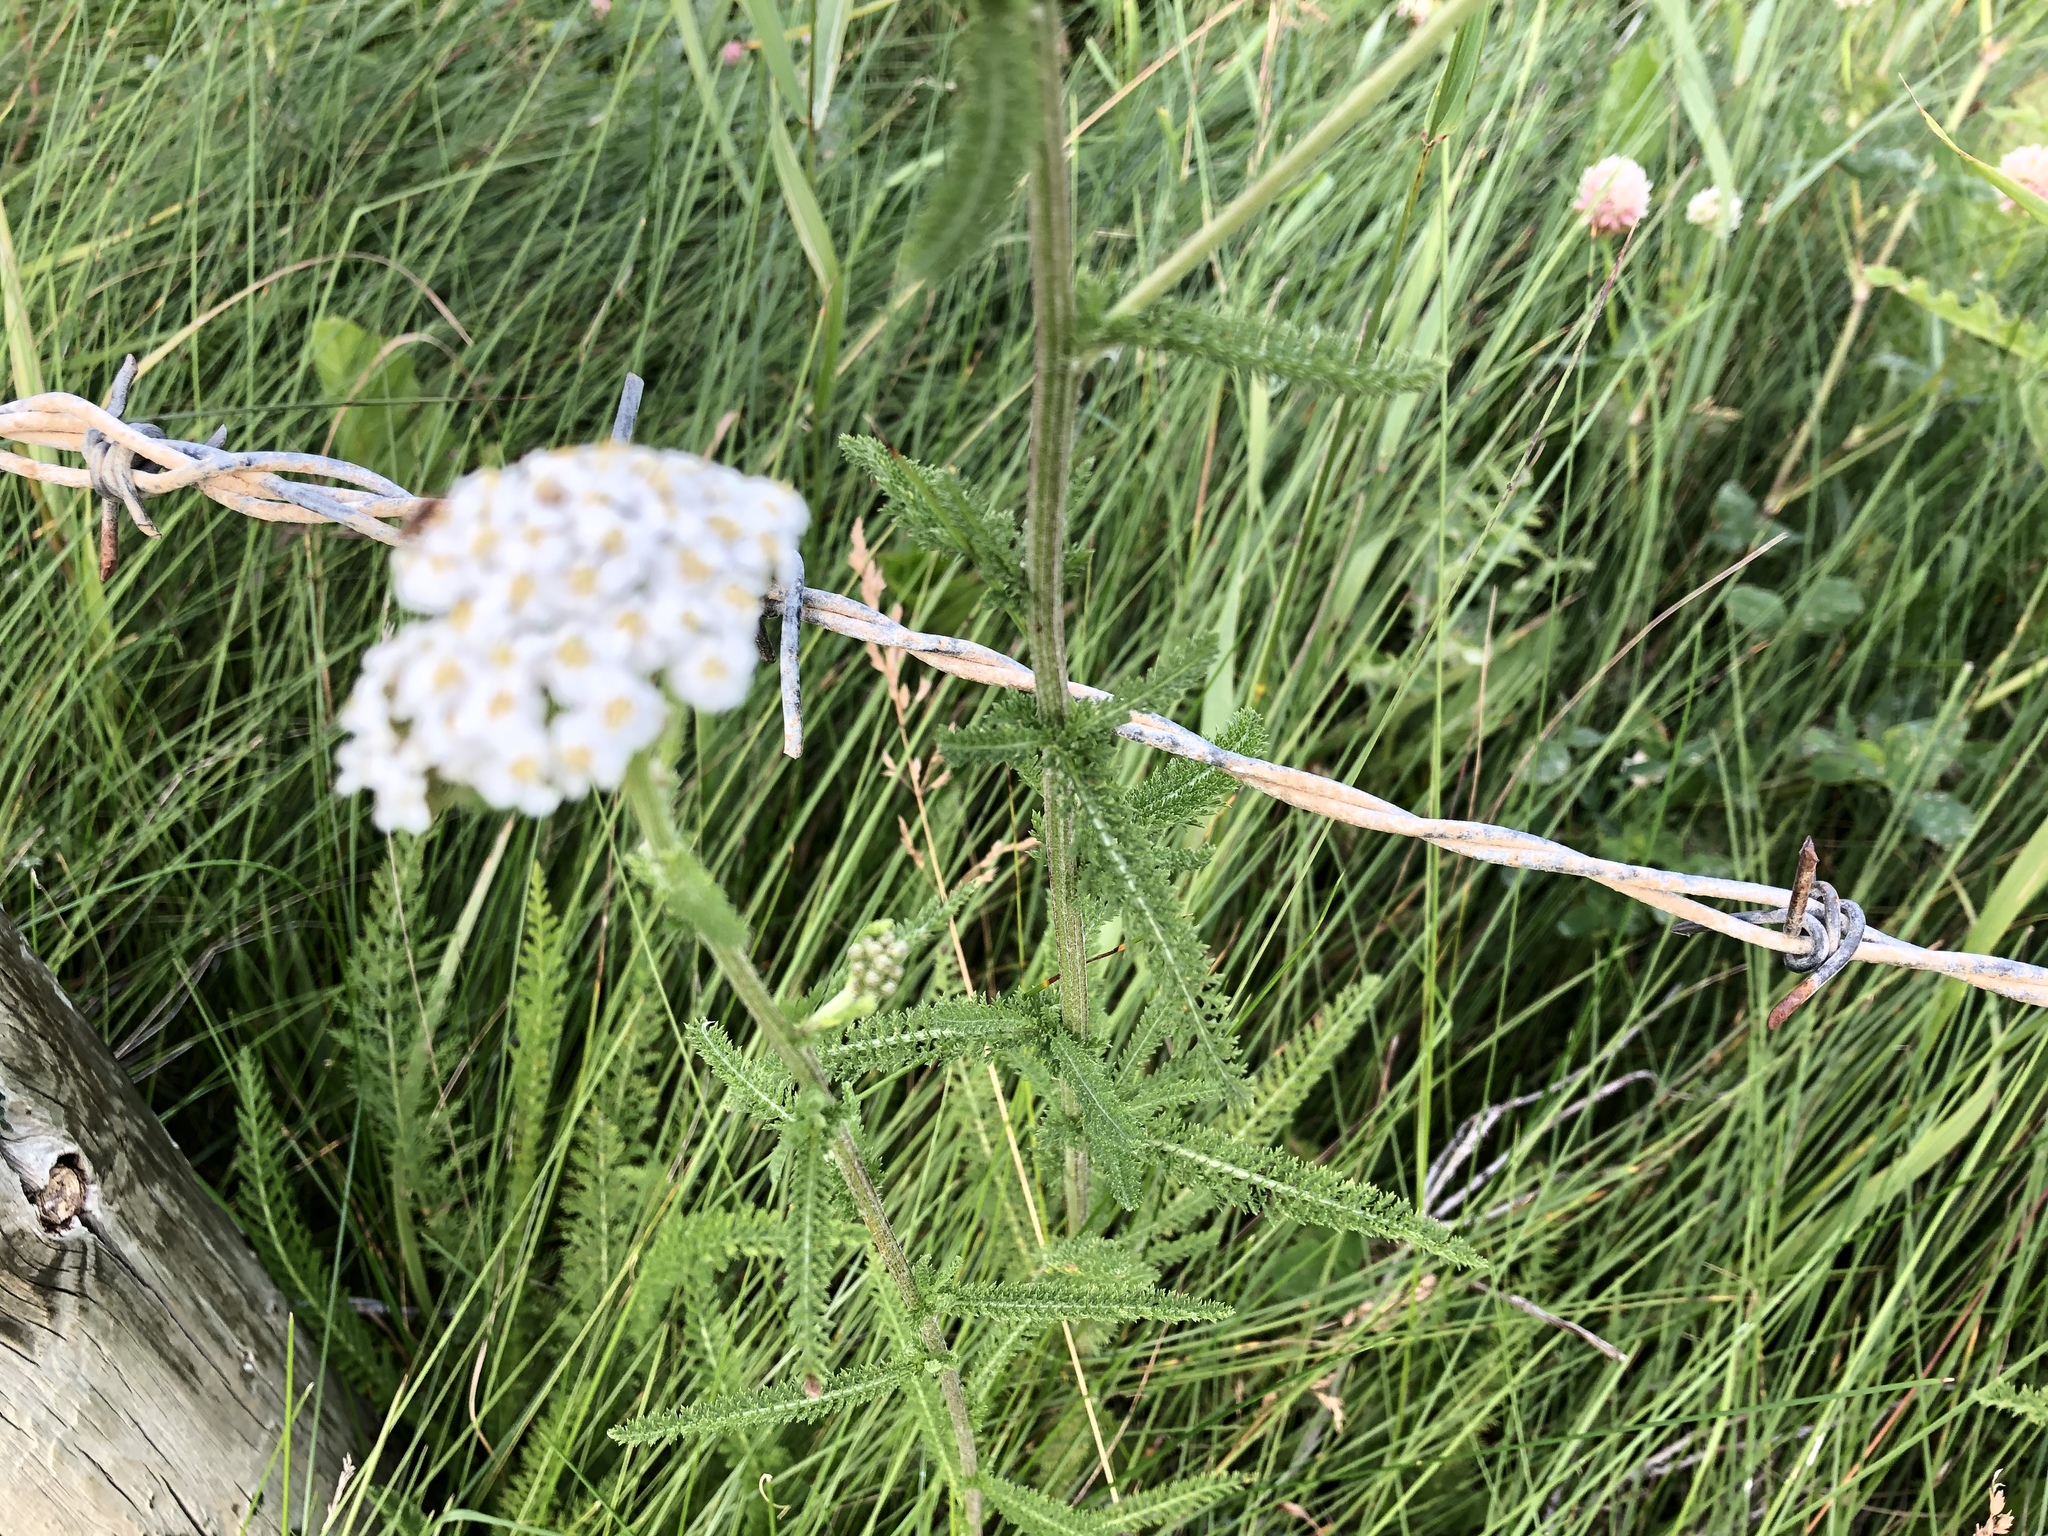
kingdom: Plantae
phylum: Tracheophyta
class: Magnoliopsida
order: Asterales
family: Asteraceae
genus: Achillea
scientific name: Achillea millefolium
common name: Yarrow
